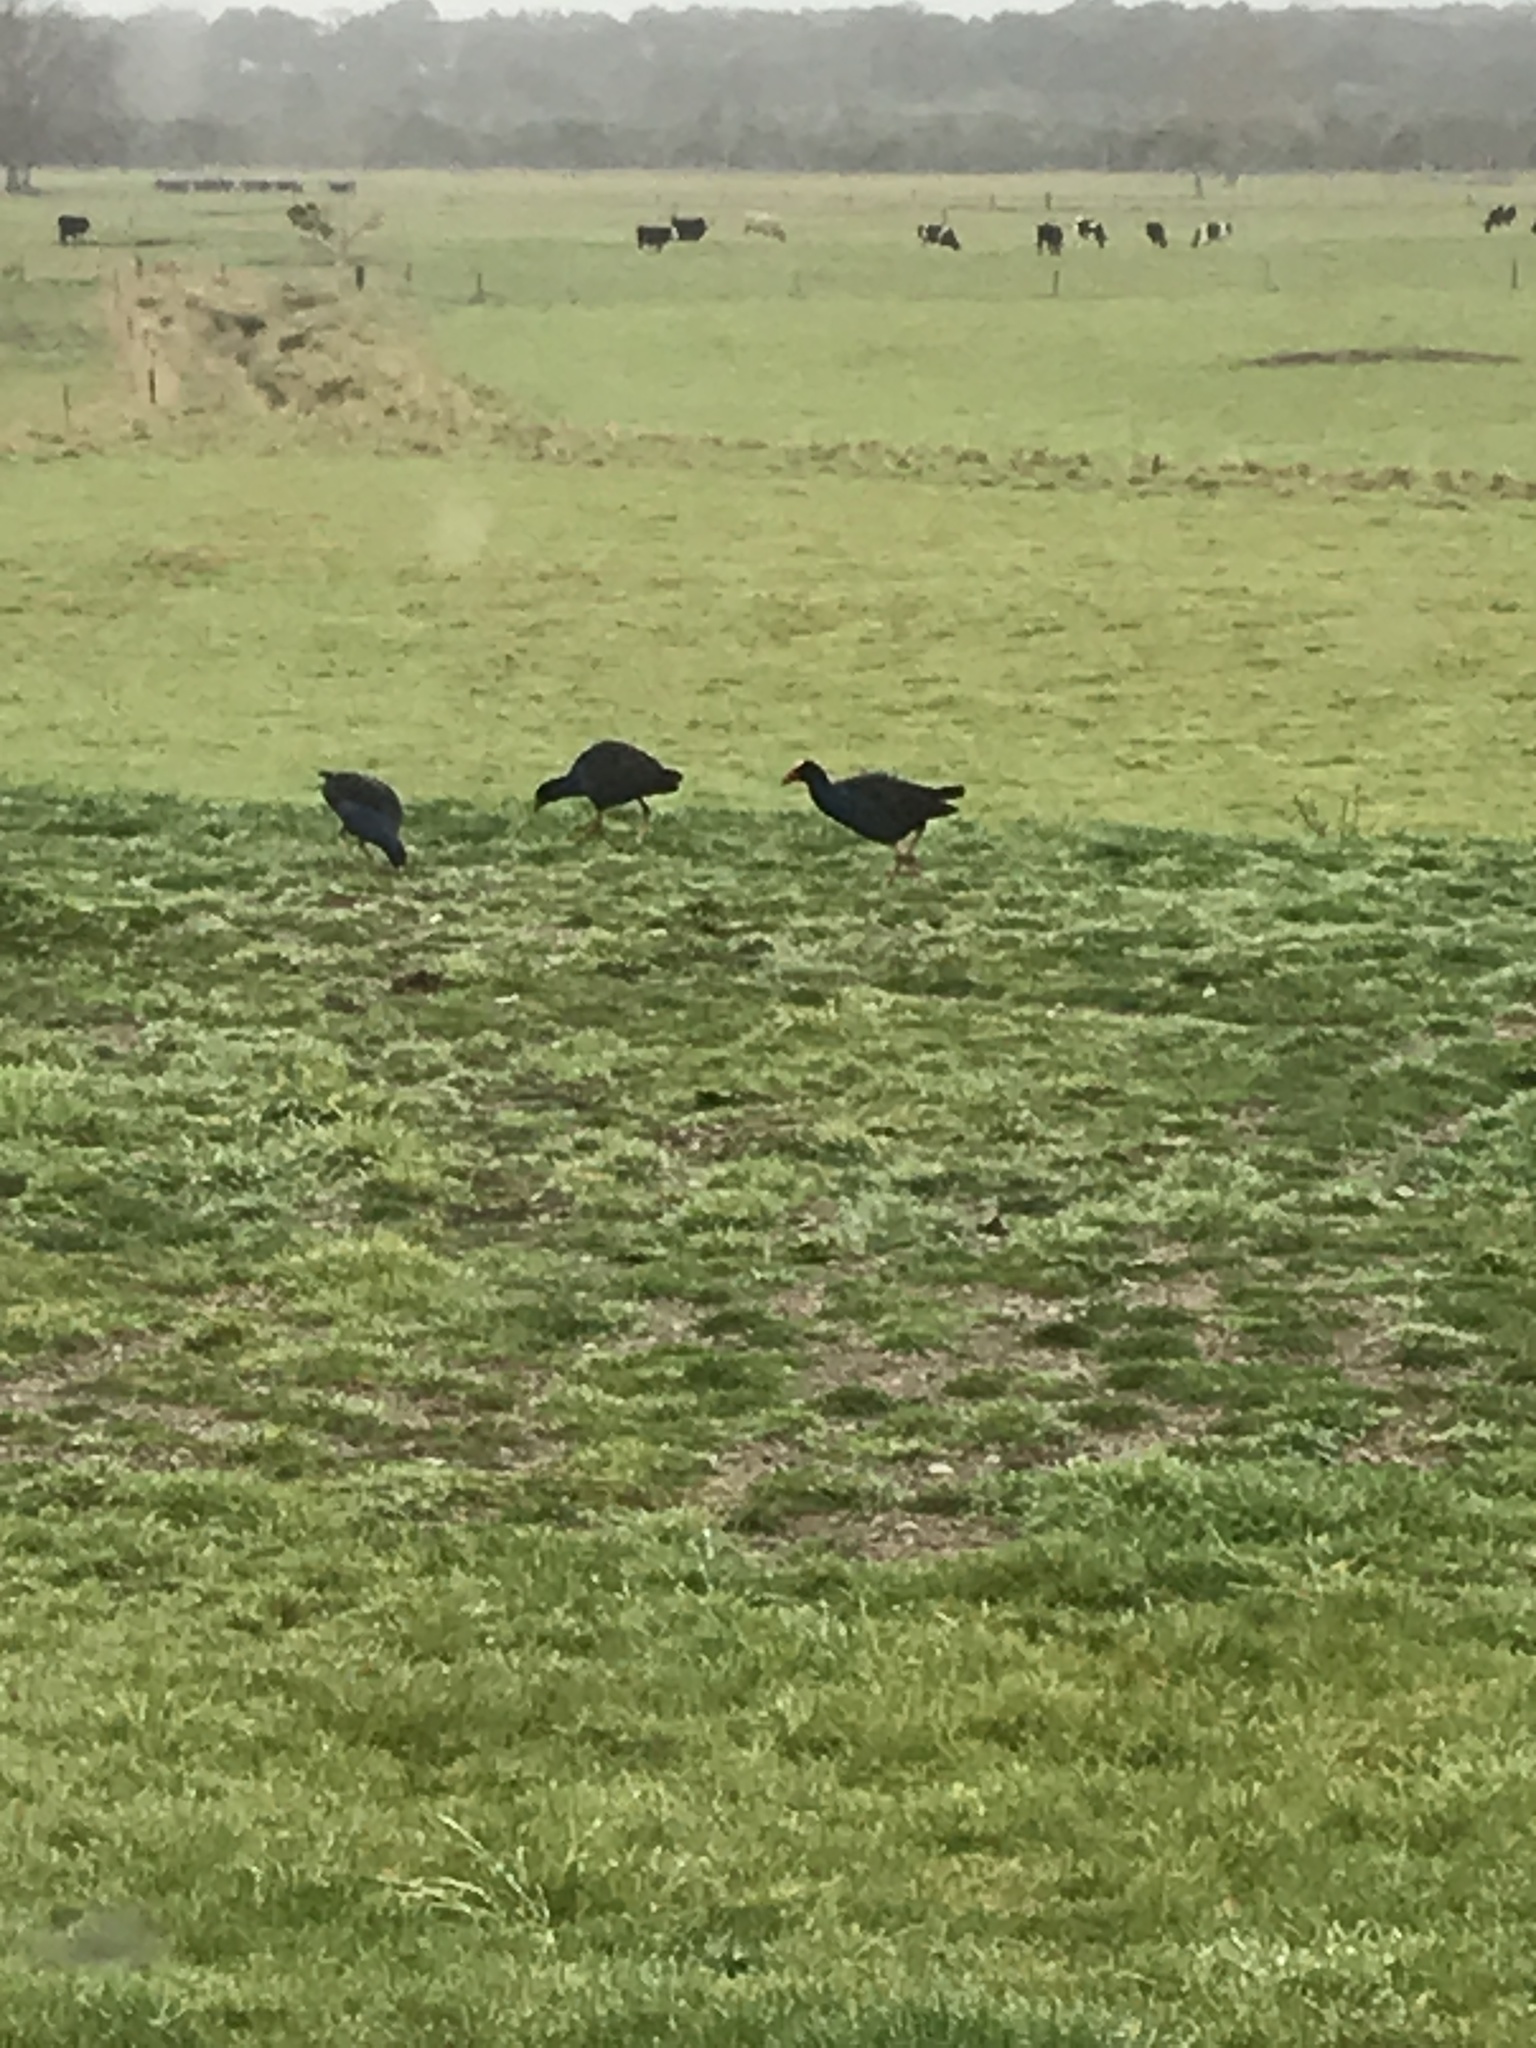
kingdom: Animalia
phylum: Chordata
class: Aves
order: Gruiformes
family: Rallidae
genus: Porphyrio
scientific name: Porphyrio melanotus
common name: Australasian swamphen
